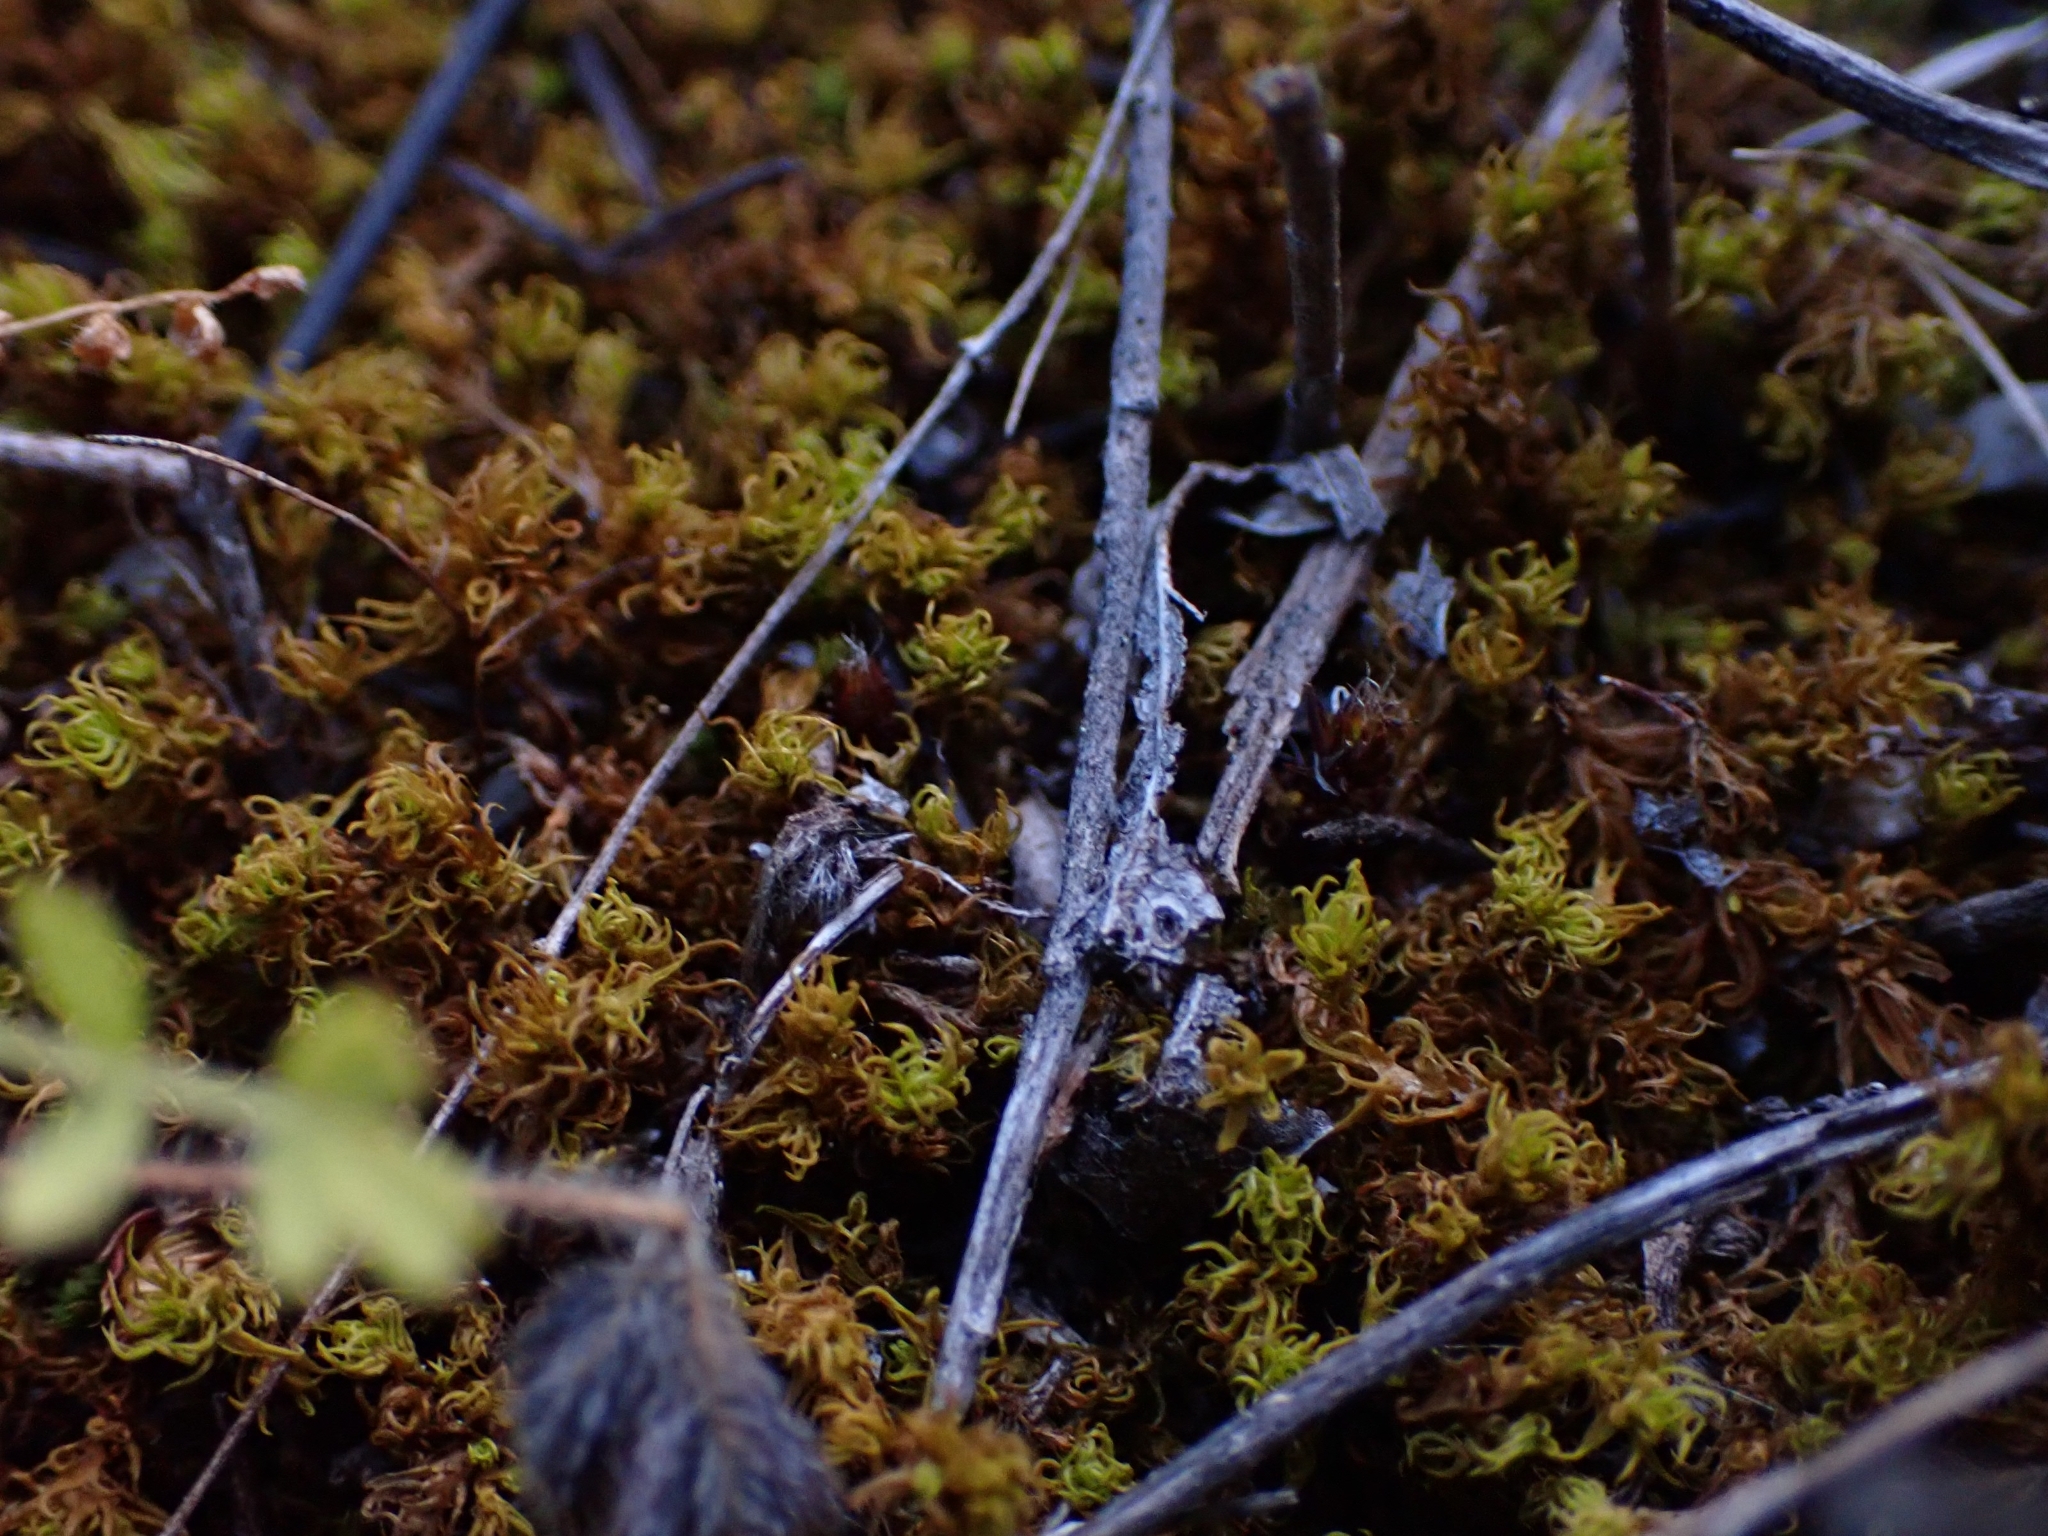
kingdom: Plantae
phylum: Bryophyta
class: Bryopsida
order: Pottiales
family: Pottiaceae
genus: Pleurochaete
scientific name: Pleurochaete squarrosa
